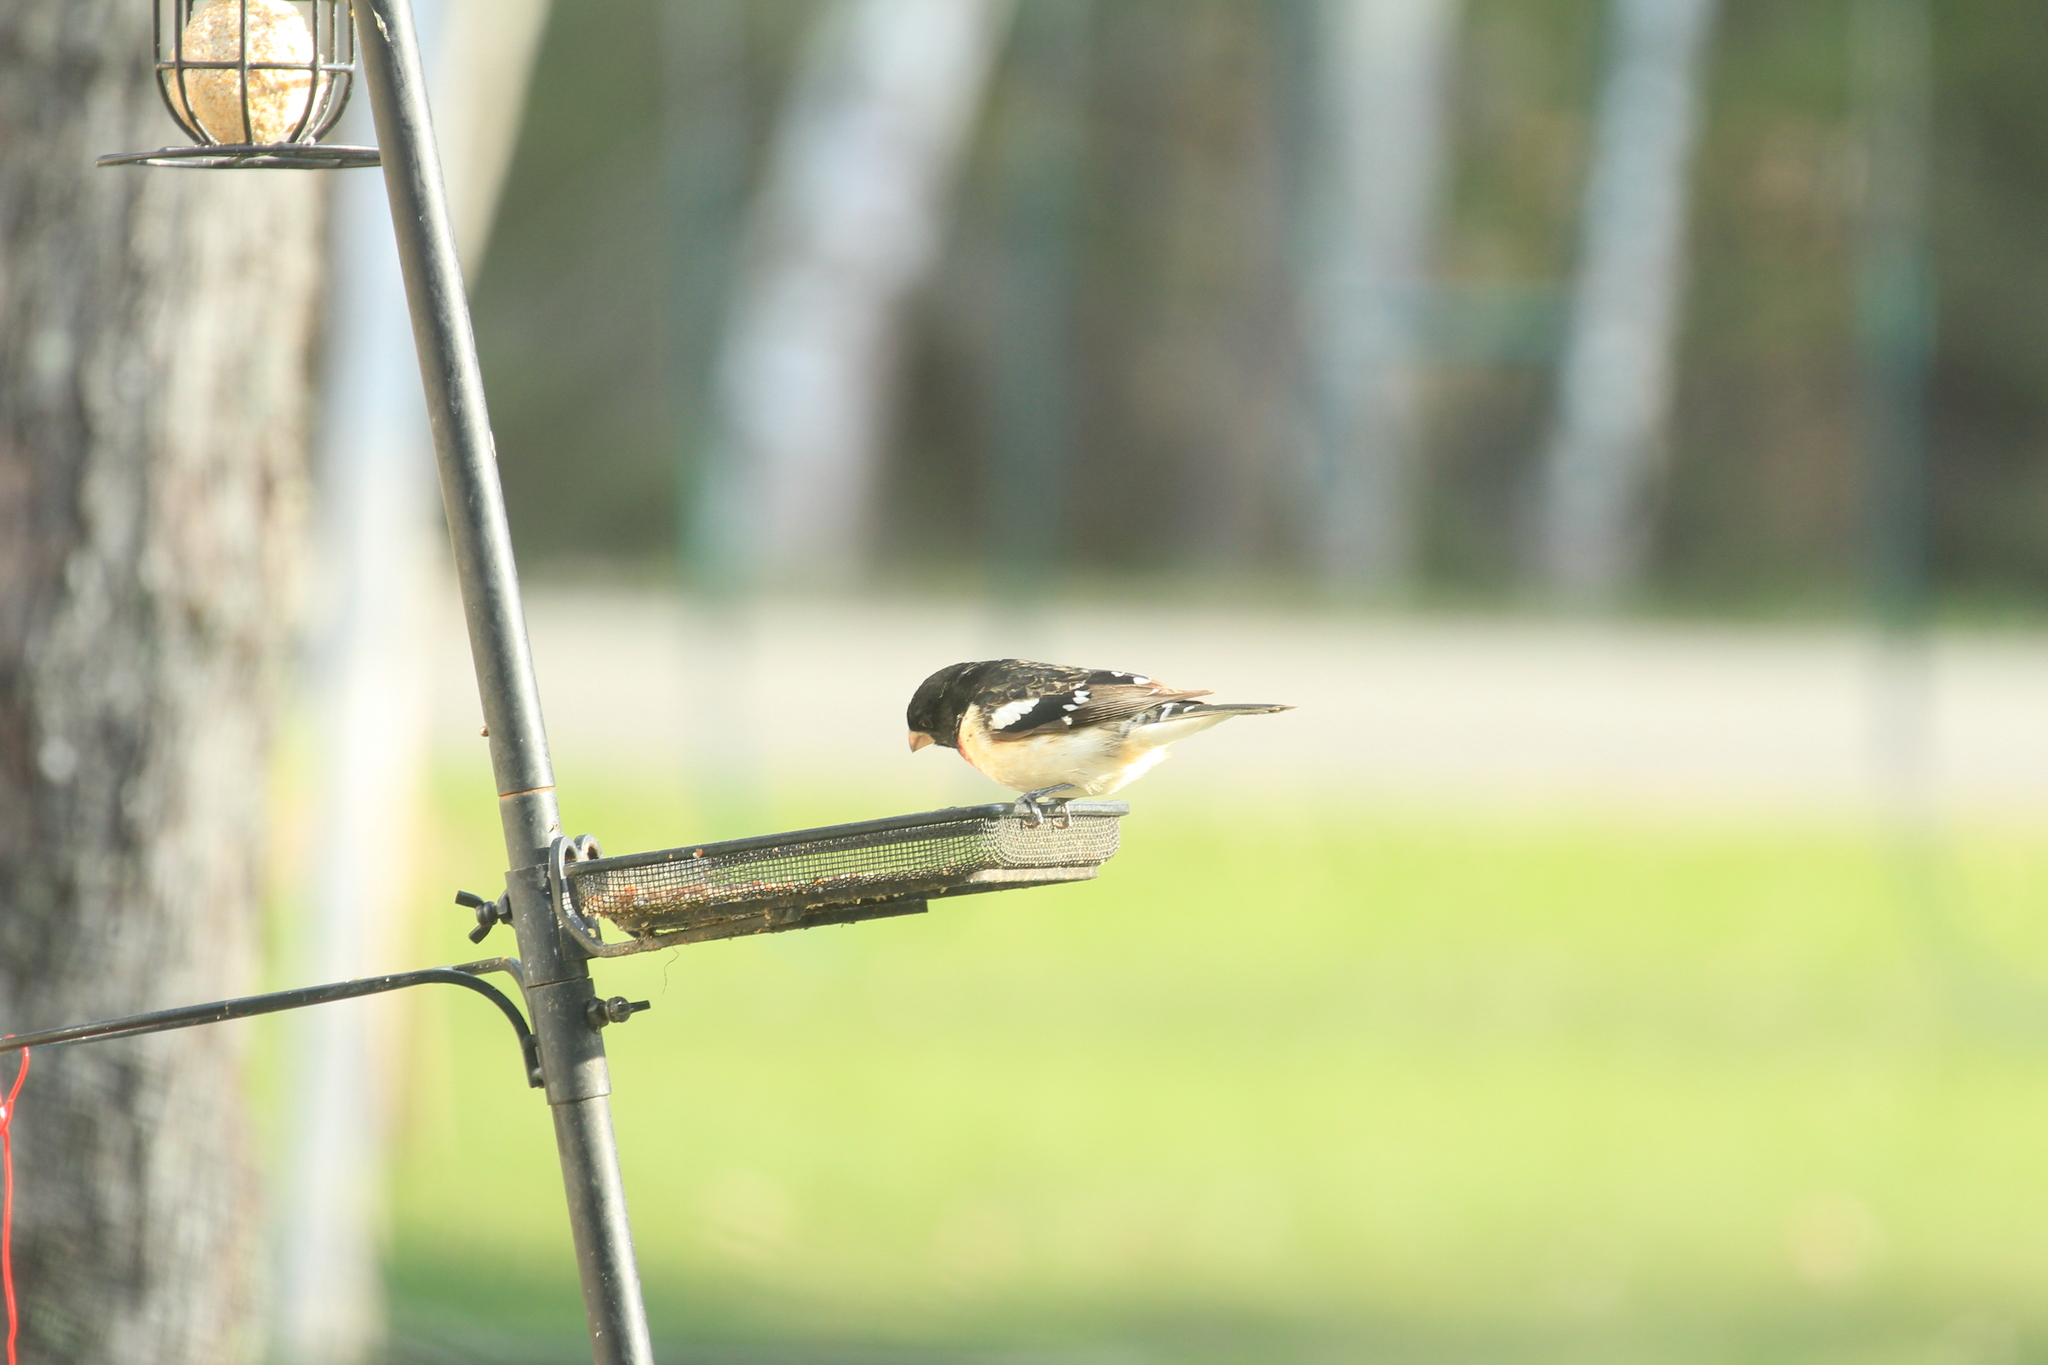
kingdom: Animalia
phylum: Chordata
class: Aves
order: Passeriformes
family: Cardinalidae
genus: Pheucticus
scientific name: Pheucticus ludovicianus
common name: Rose-breasted grosbeak
